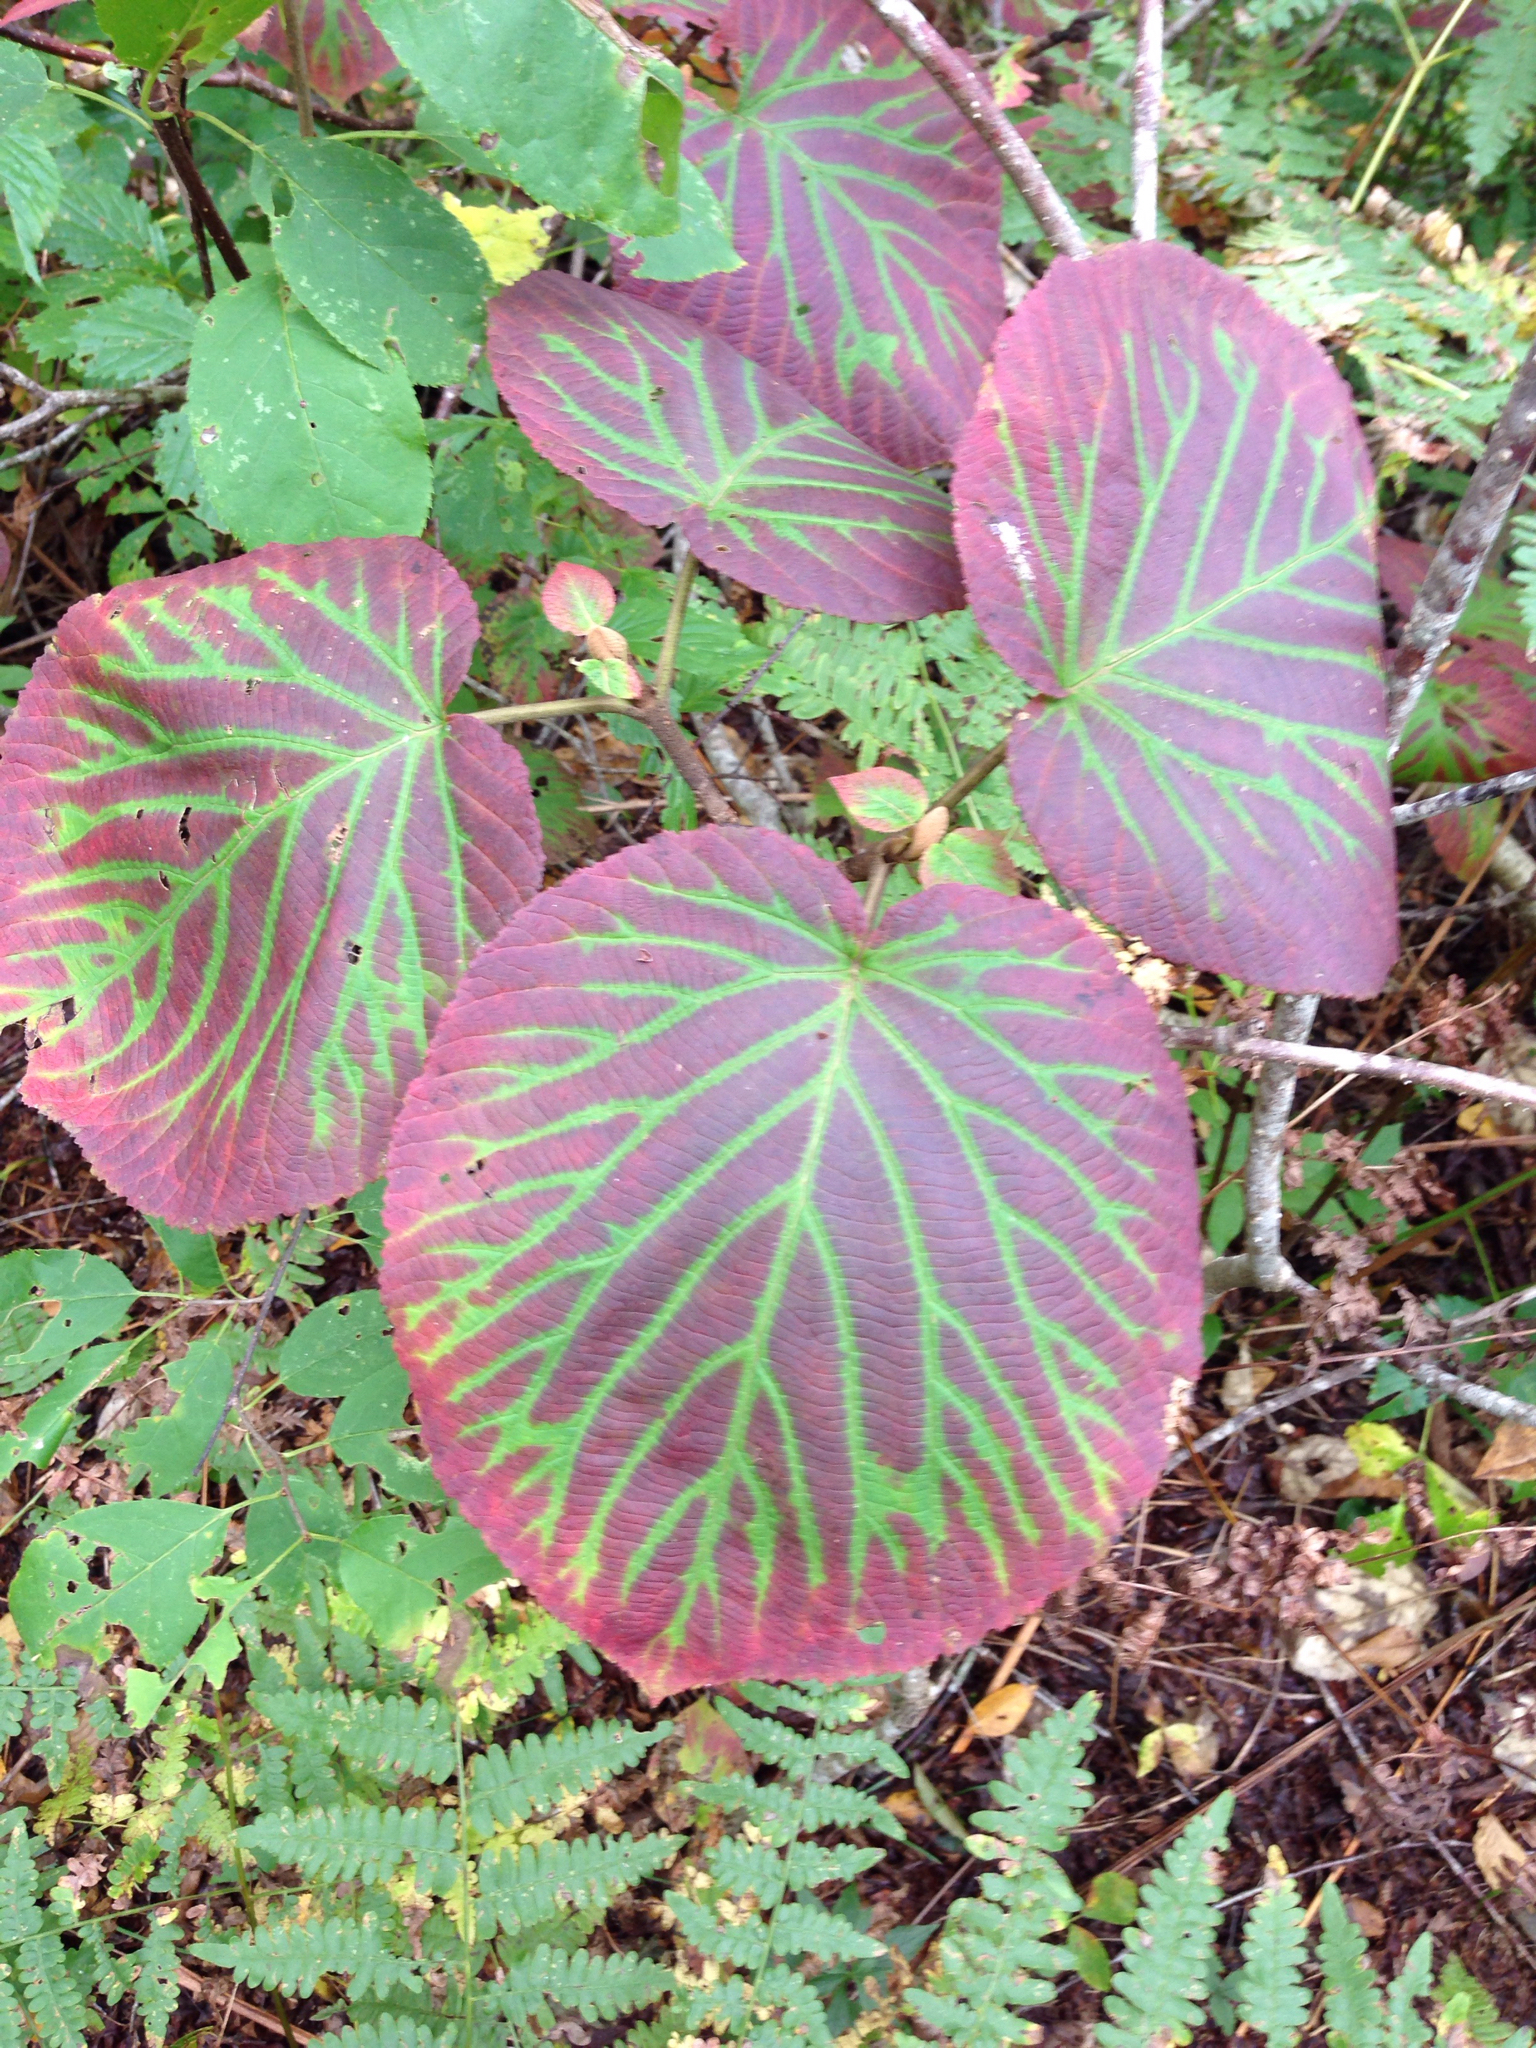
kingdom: Plantae
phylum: Tracheophyta
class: Magnoliopsida
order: Dipsacales
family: Viburnaceae
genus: Viburnum
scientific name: Viburnum lantanoides
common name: Hobblebush
